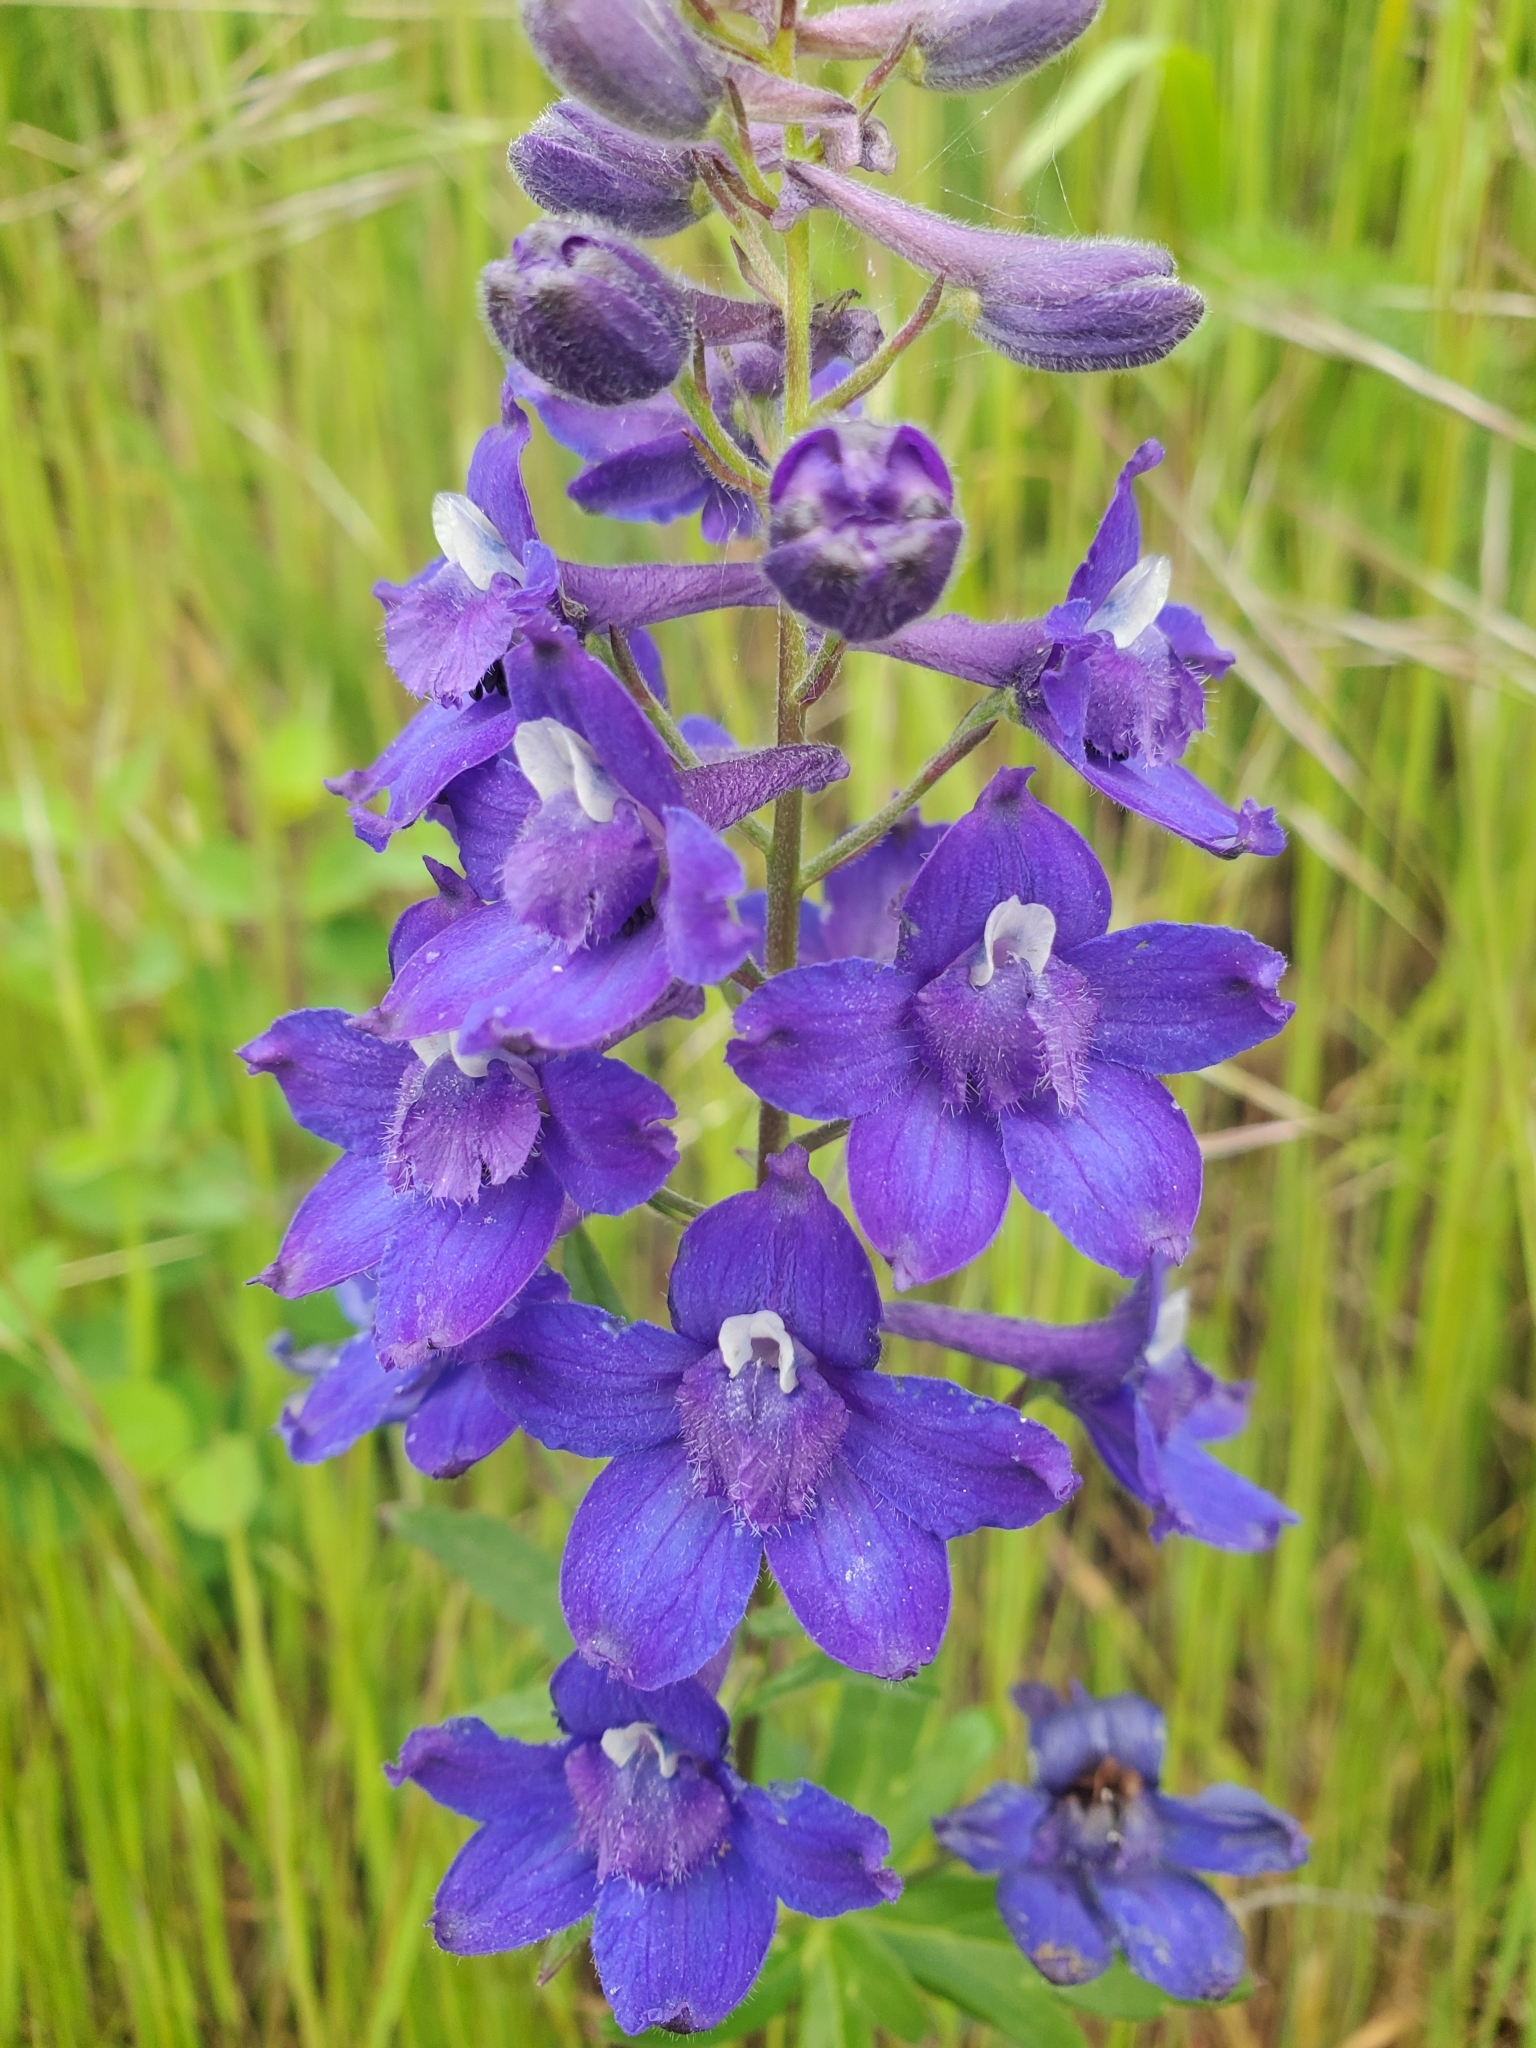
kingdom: Plantae
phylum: Tracheophyta
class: Magnoliopsida
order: Ranunculales
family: Ranunculaceae
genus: Delphinium
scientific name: Delphinium menziesii
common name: Menzies's larkspur
